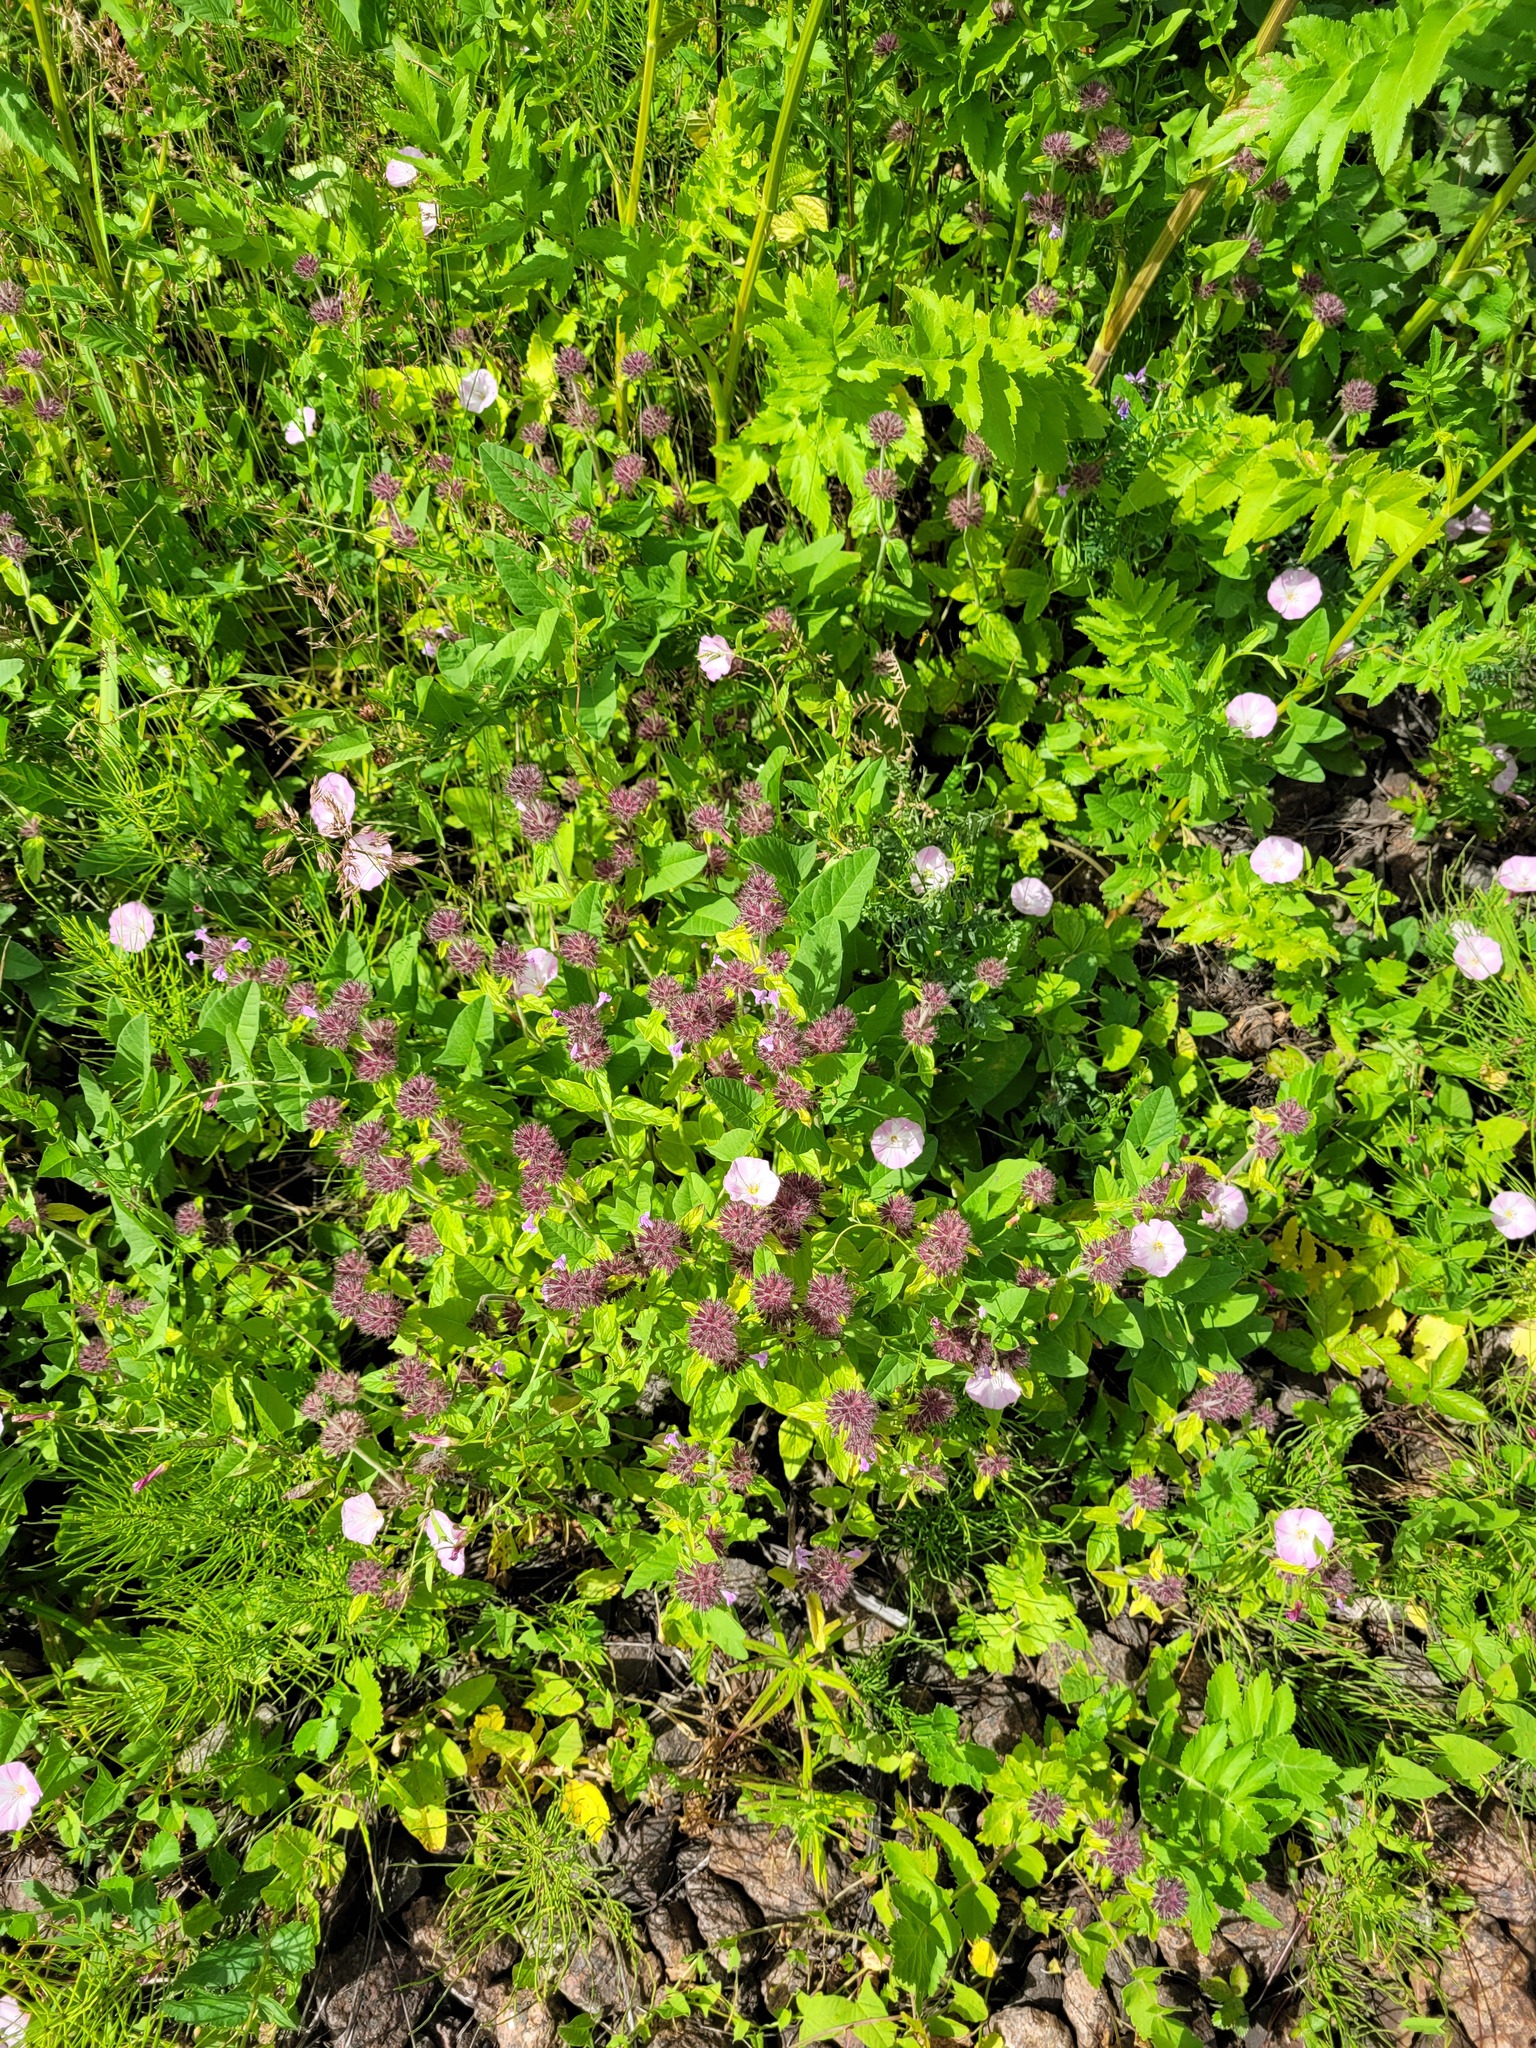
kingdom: Plantae
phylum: Tracheophyta
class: Magnoliopsida
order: Lamiales
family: Lamiaceae
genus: Clinopodium
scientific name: Clinopodium vulgare
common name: Wild basil
